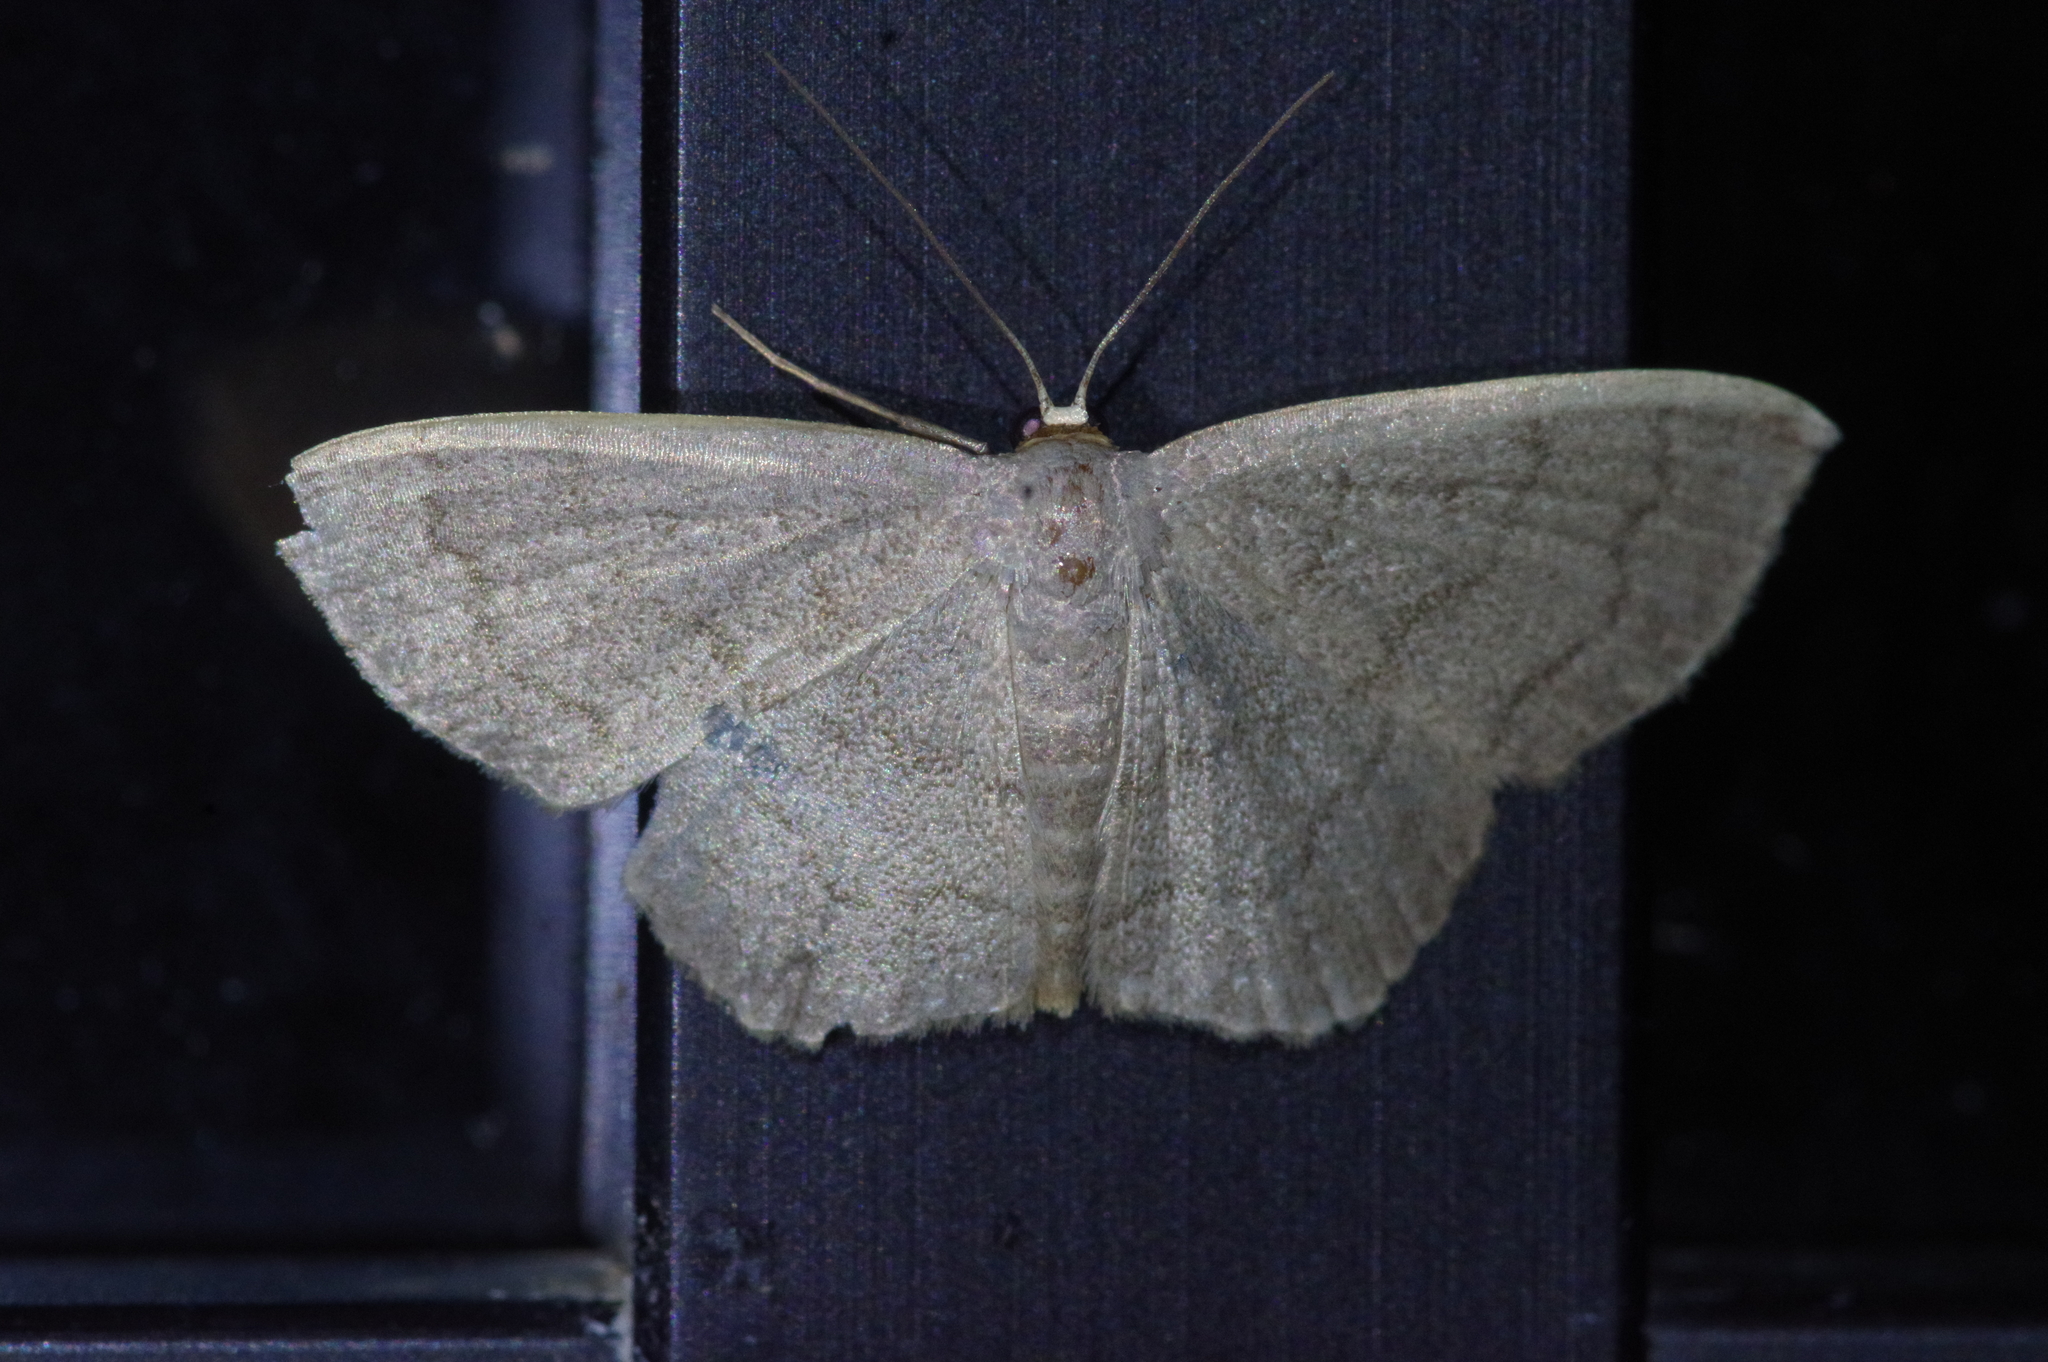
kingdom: Animalia
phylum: Arthropoda
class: Insecta
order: Lepidoptera
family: Geometridae
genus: Scopula
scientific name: Scopula plumbearia
